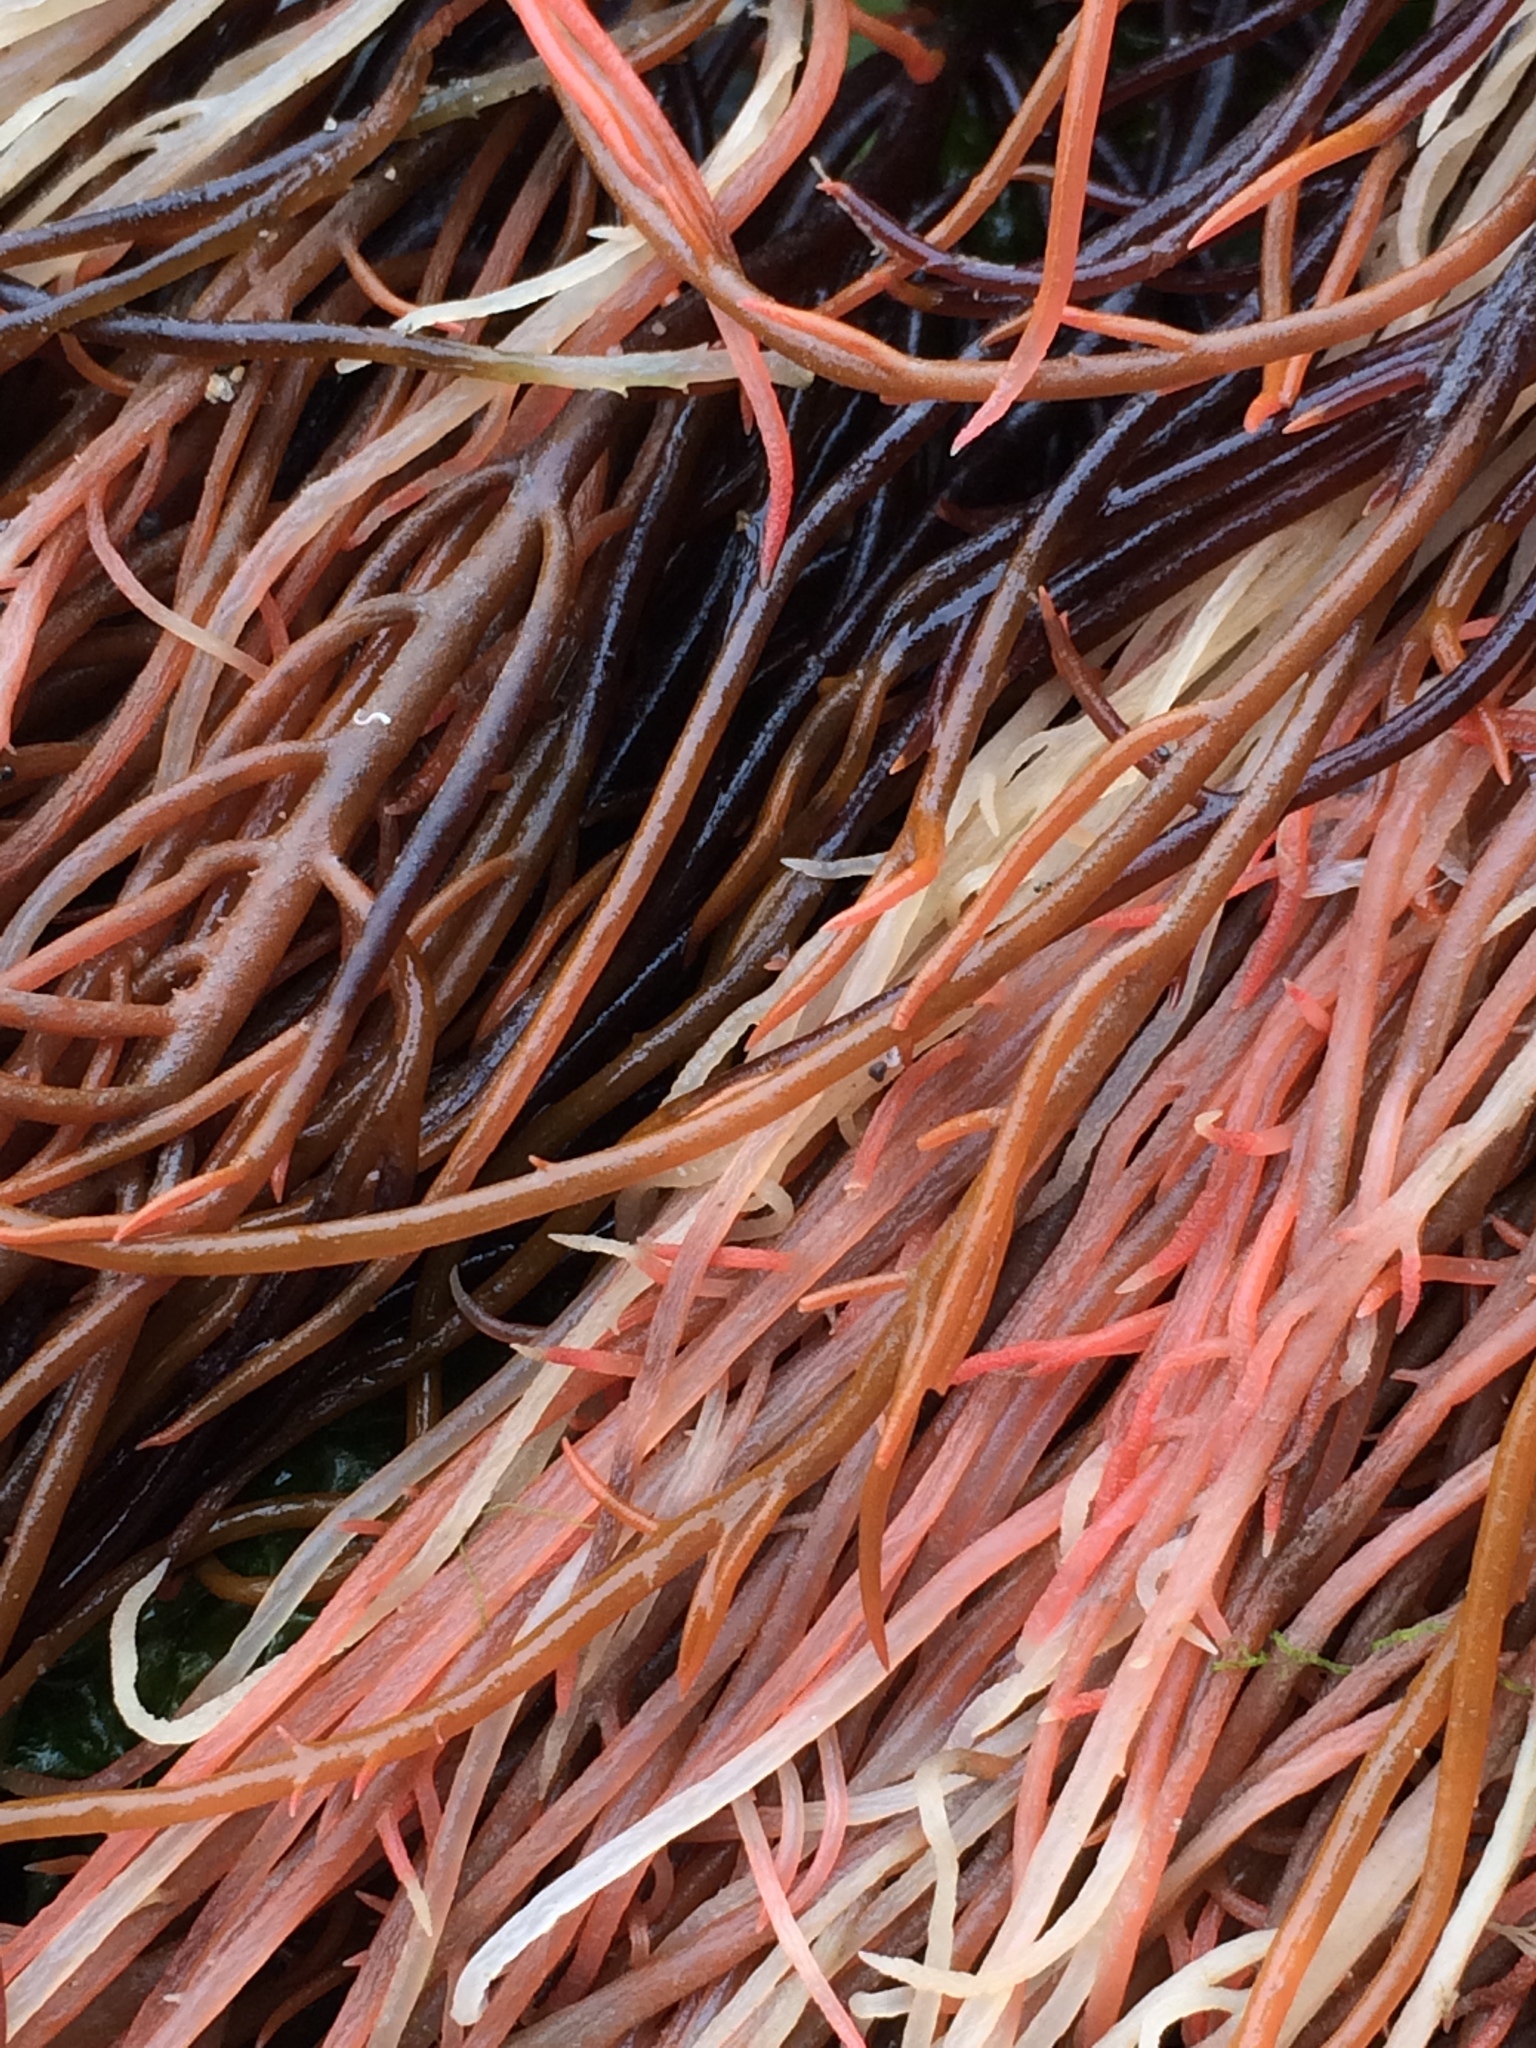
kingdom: Plantae
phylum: Rhodophyta
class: Florideophyceae
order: Gigartinales
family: Solieriaceae
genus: Sarcodiotheca
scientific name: Sarcodiotheca gaudichaudii
